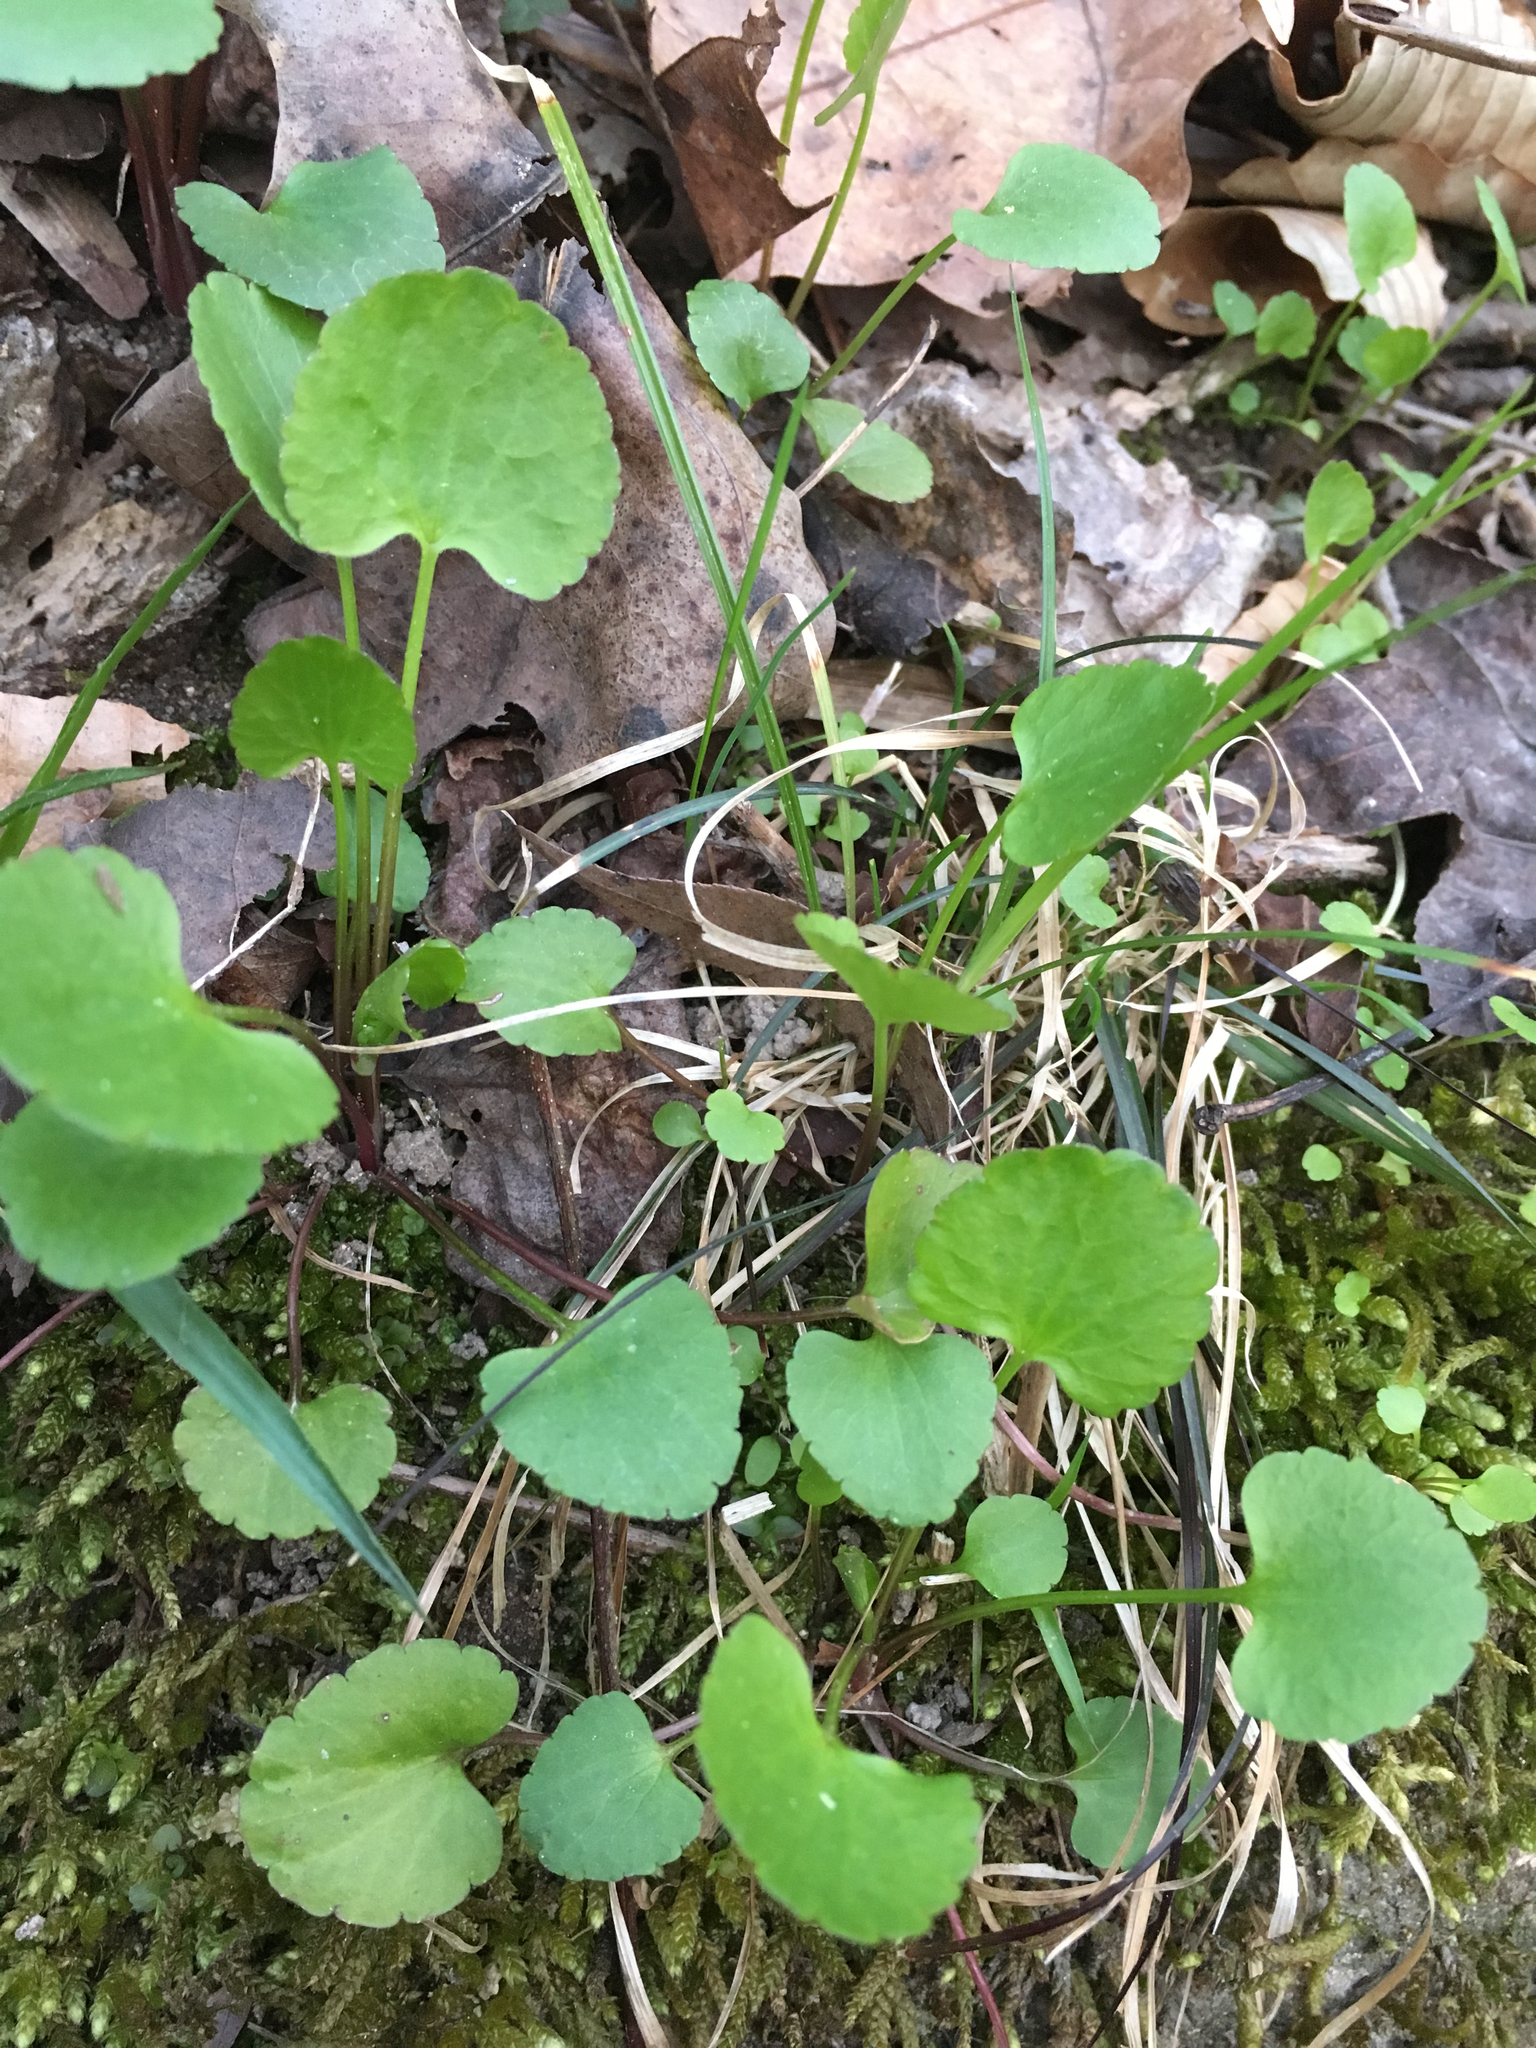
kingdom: Plantae
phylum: Tracheophyta
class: Magnoliopsida
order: Ranunculales
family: Ranunculaceae
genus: Ranunculus
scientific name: Ranunculus abortivus
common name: Early wood buttercup
